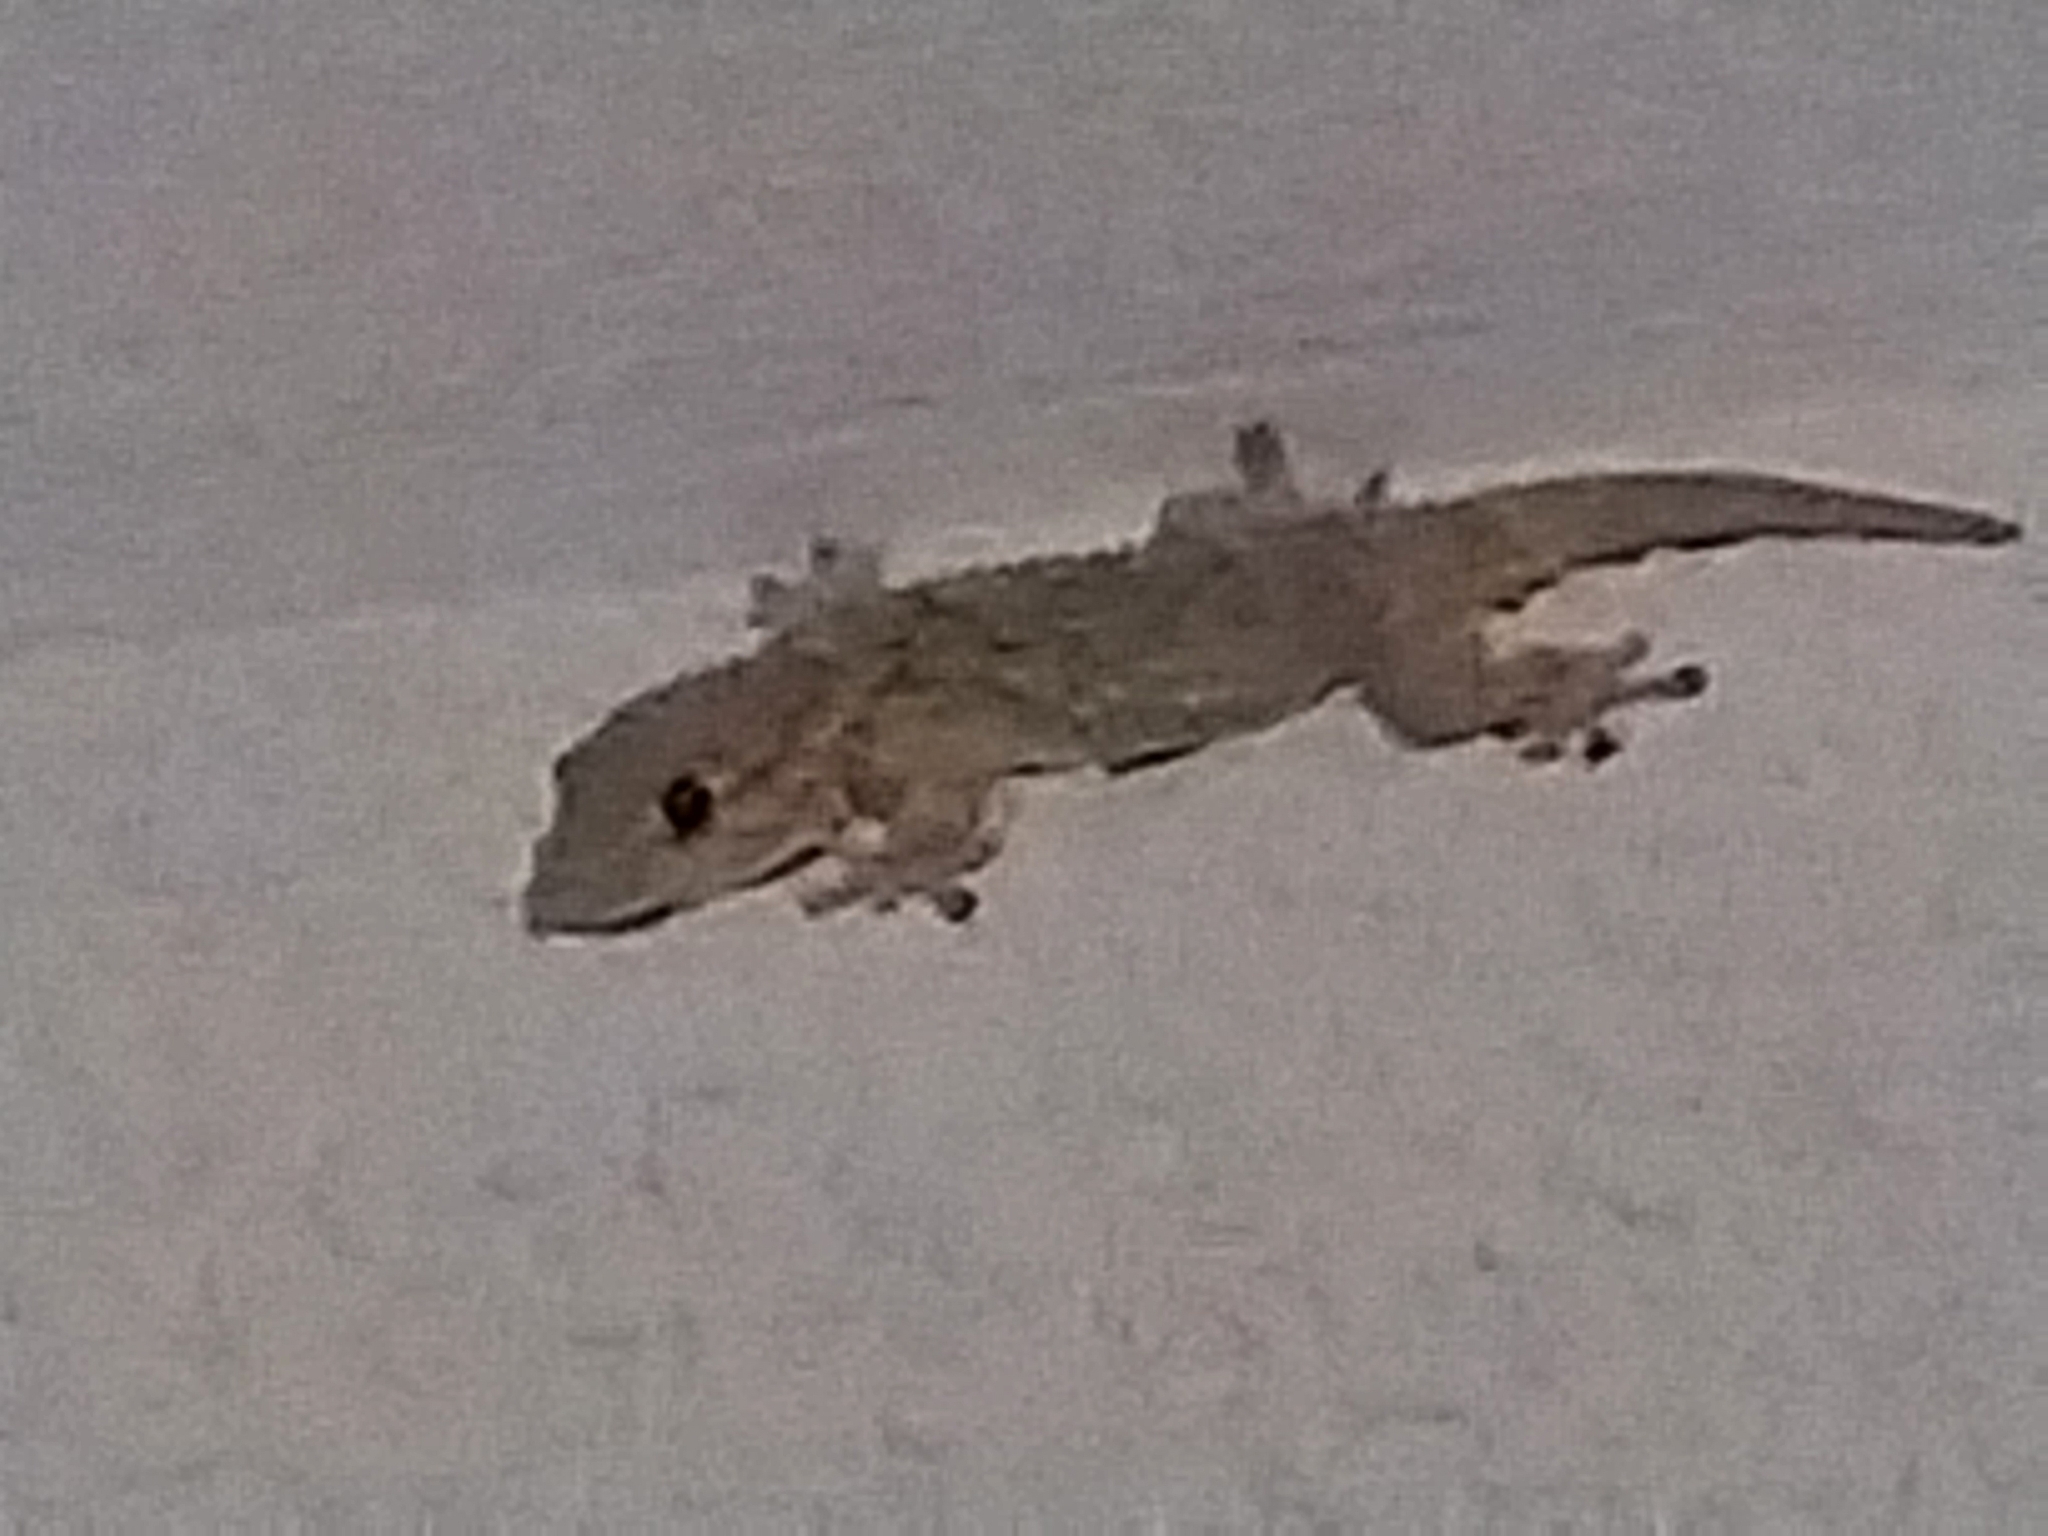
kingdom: Animalia
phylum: Chordata
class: Squamata
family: Phyllodactylidae
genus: Tarentola
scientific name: Tarentola mauritanica
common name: Moorish gecko
